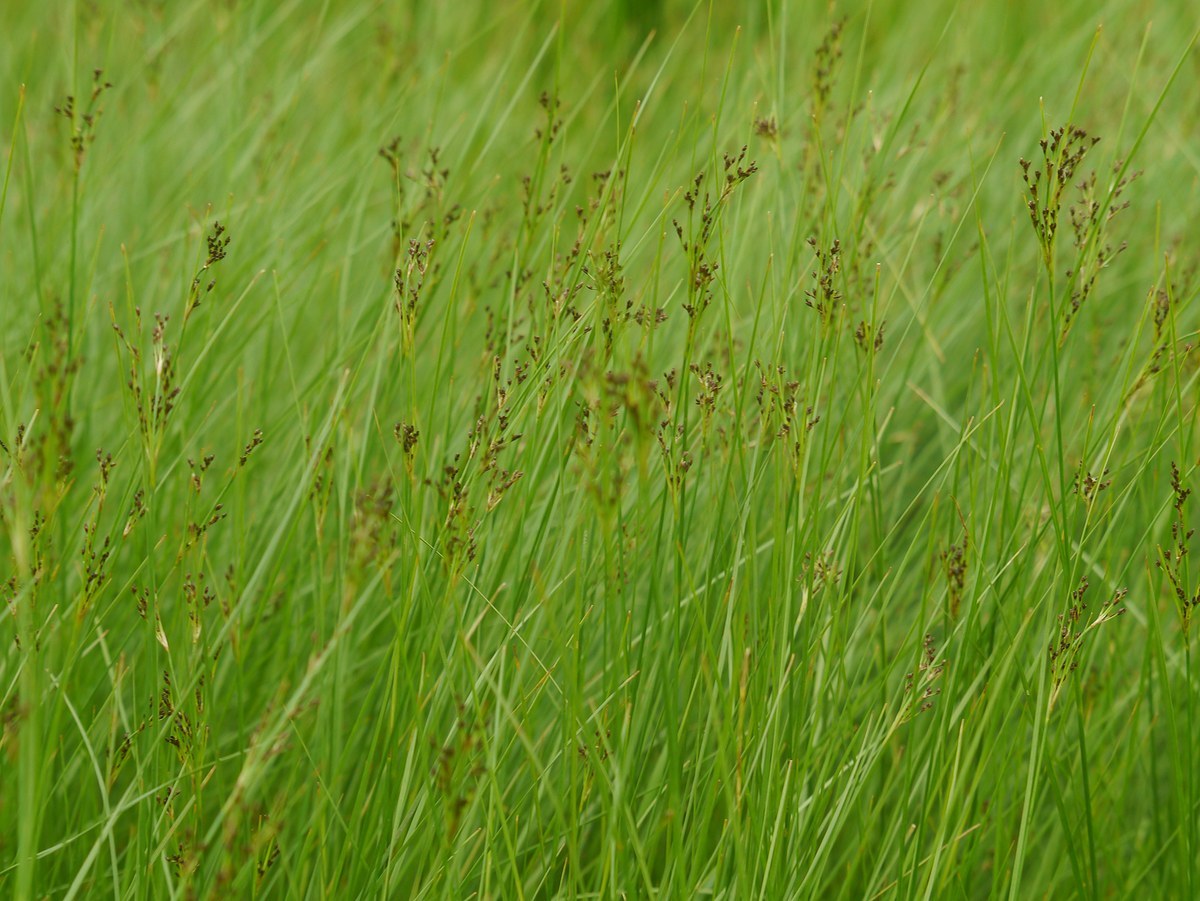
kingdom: Plantae
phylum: Tracheophyta
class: Liliopsida
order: Poales
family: Juncaceae
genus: Juncus
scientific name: Juncus gerardi
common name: Saltmarsh rush
